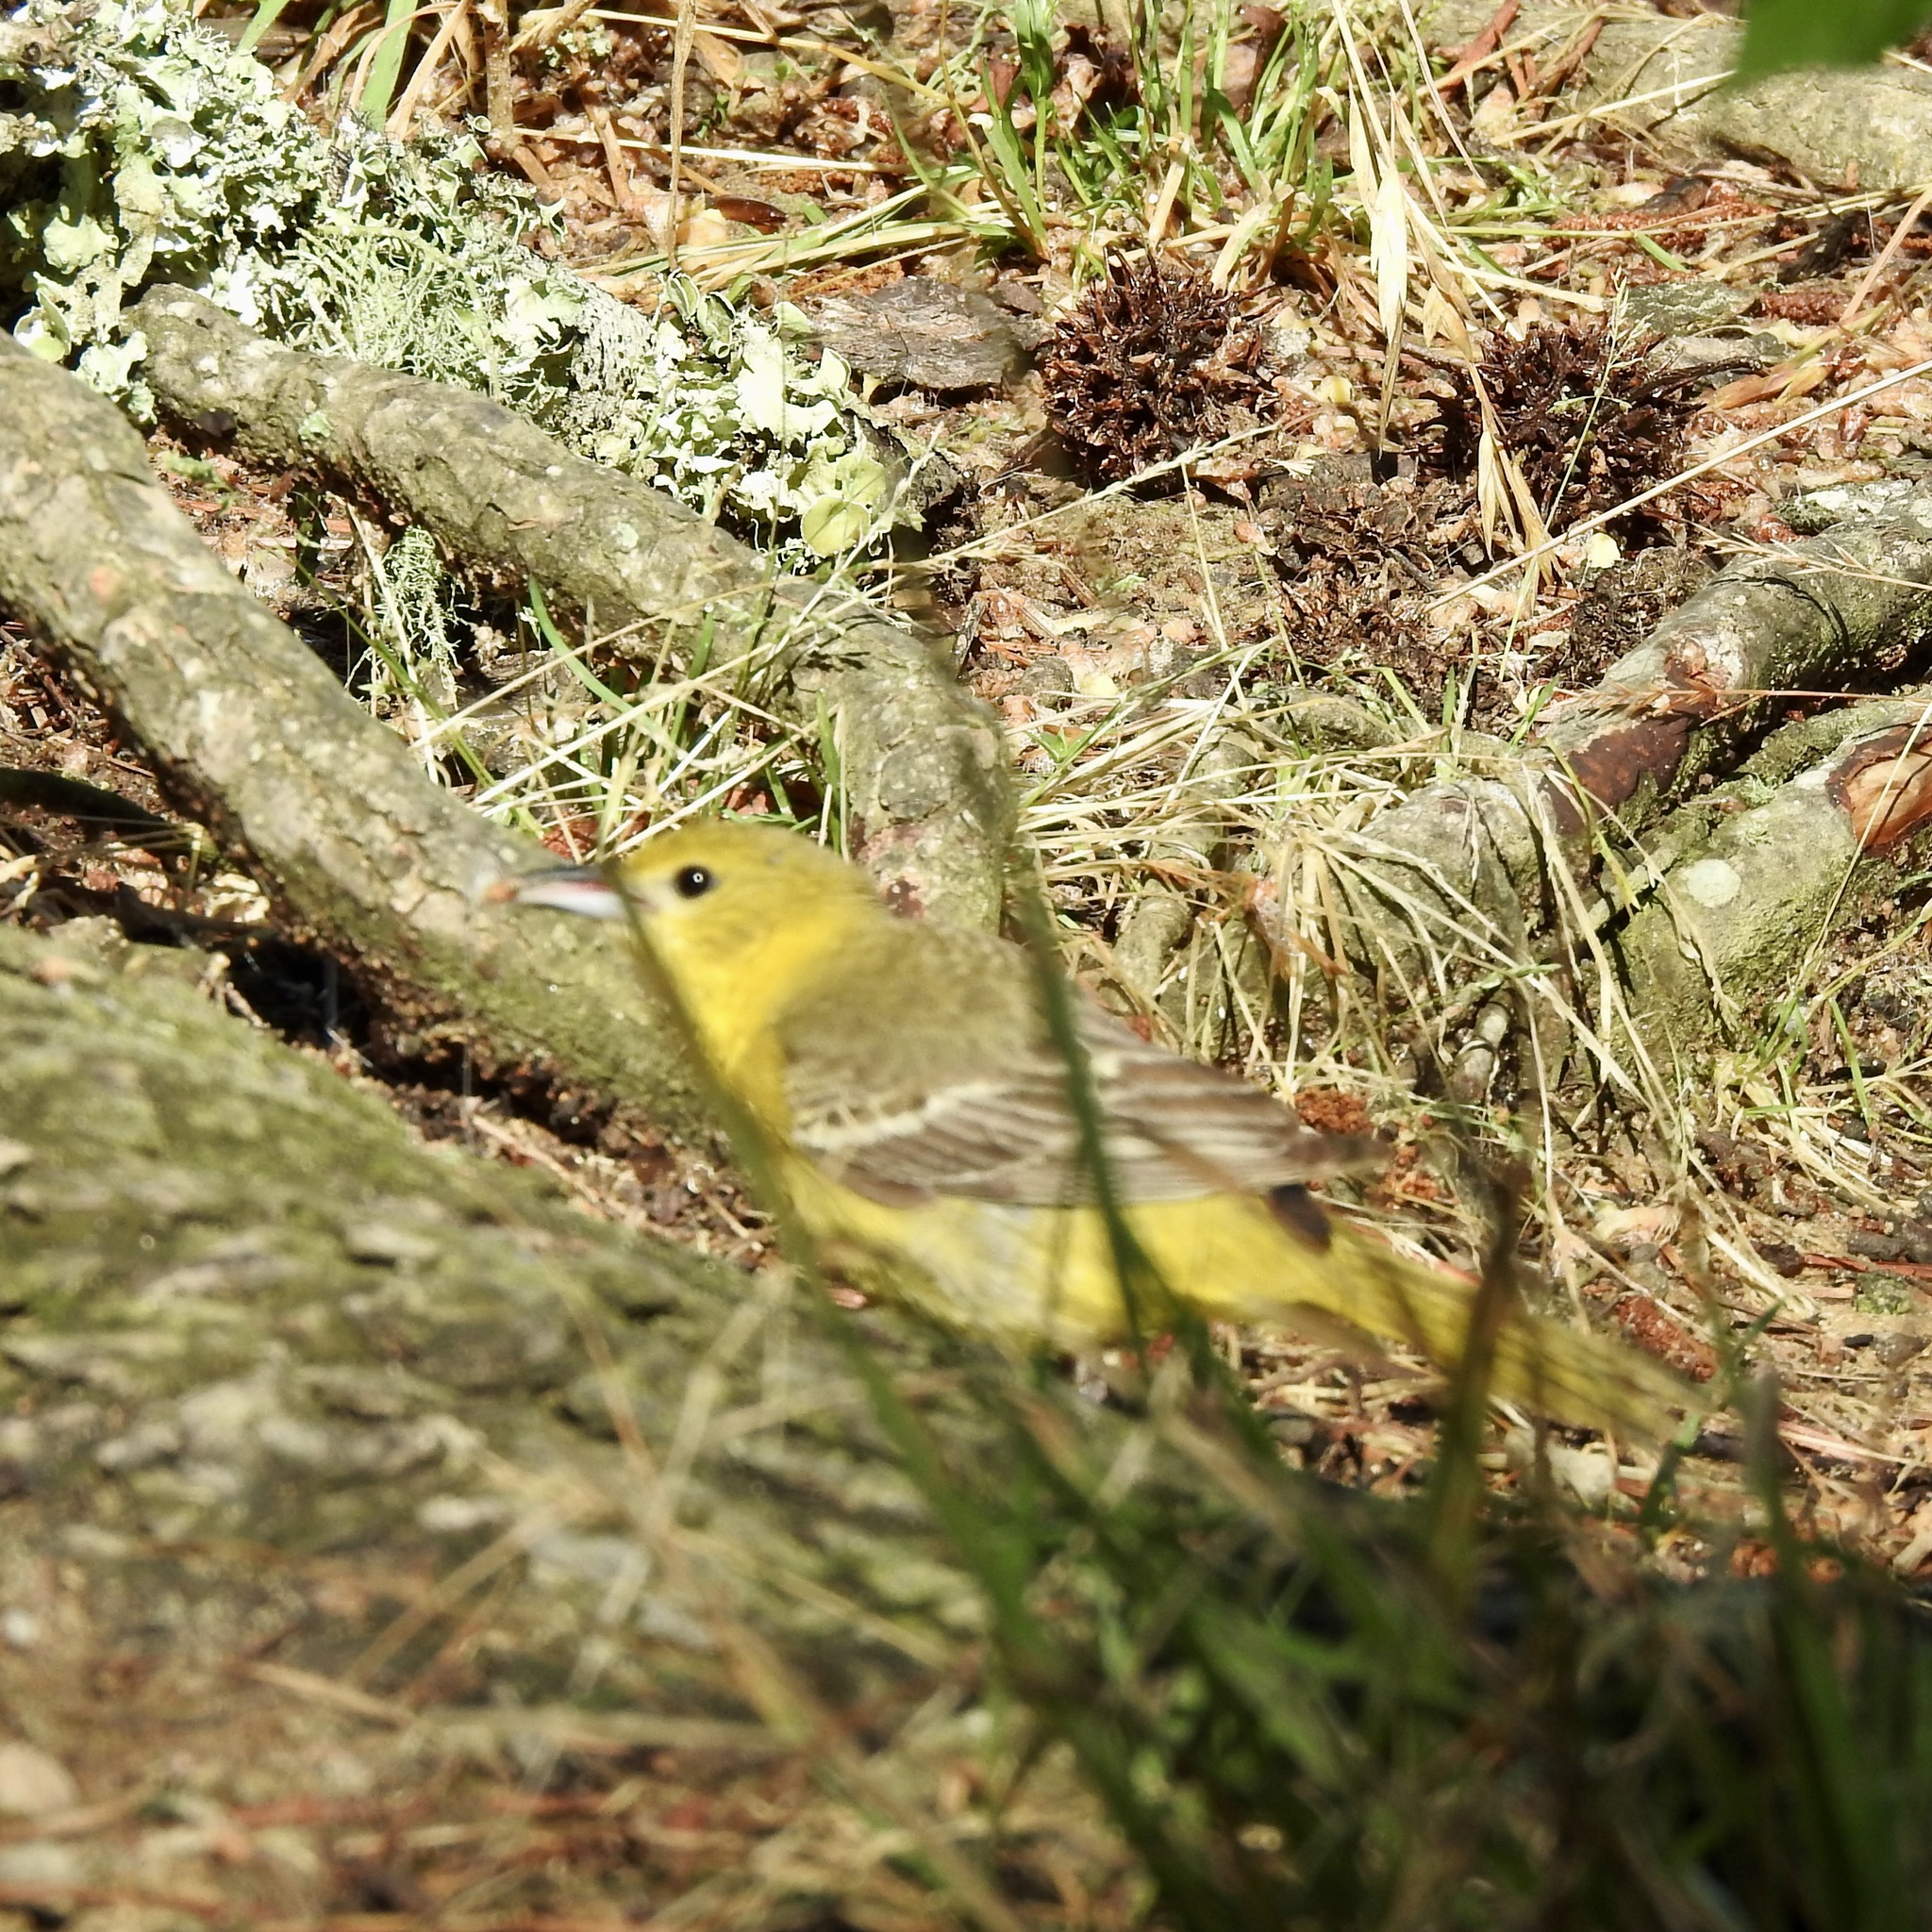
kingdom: Animalia
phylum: Chordata
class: Aves
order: Passeriformes
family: Icteridae
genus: Icterus
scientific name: Icterus spurius
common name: Orchard oriole
